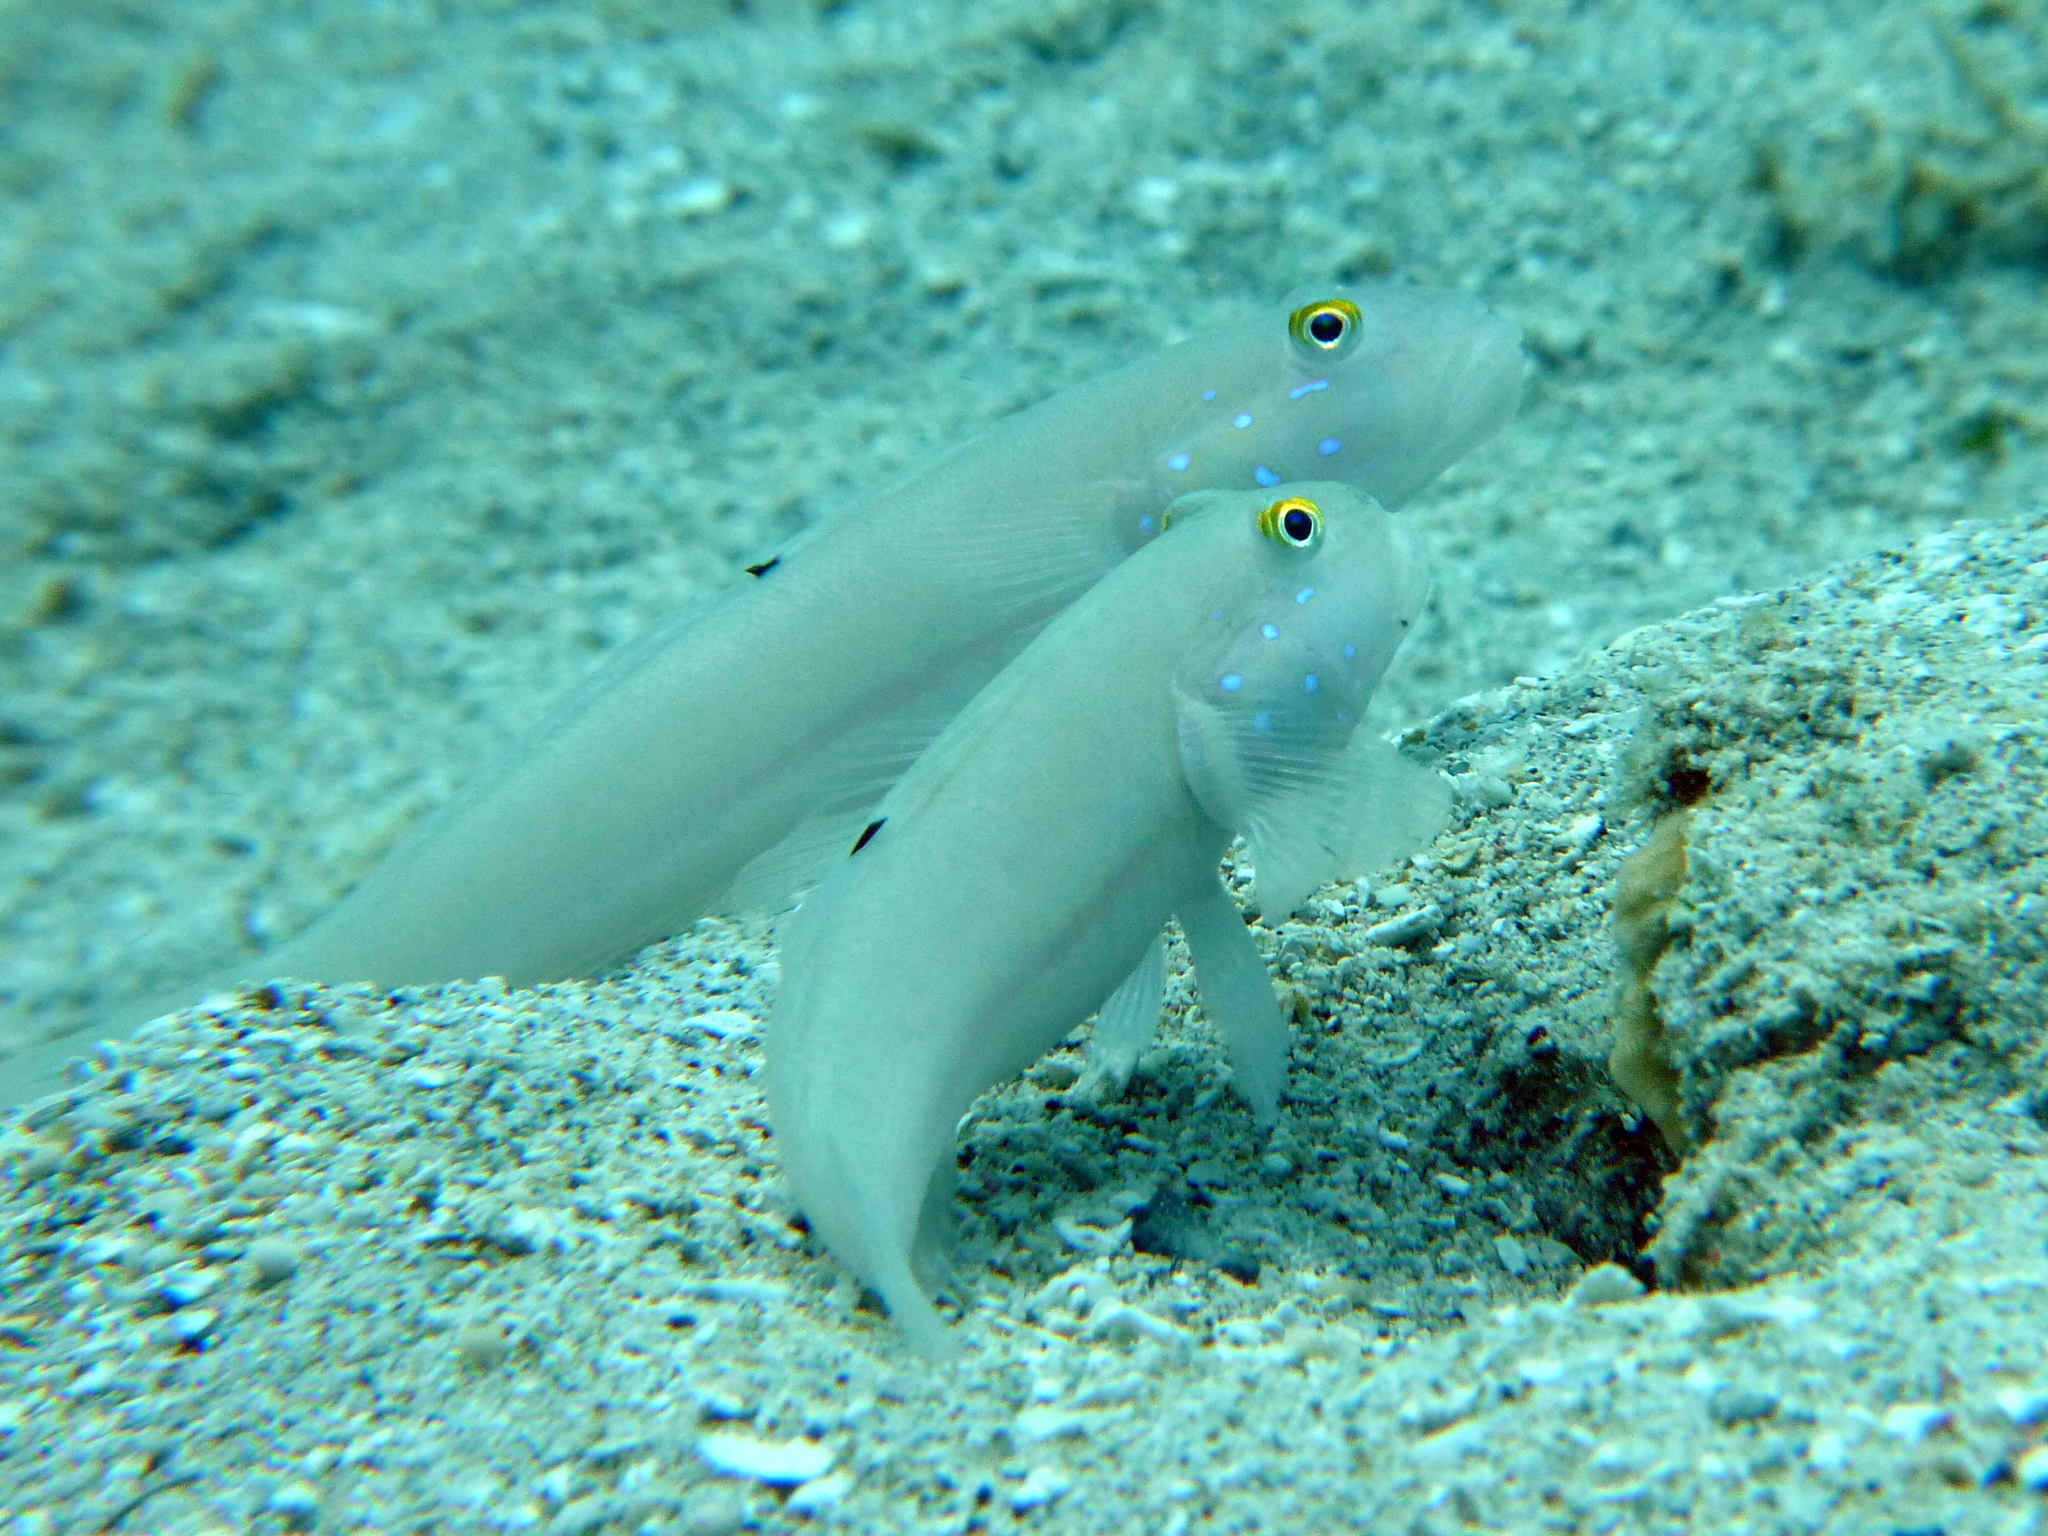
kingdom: Animalia
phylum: Chordata
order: Perciformes
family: Gobiidae
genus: Valenciennea
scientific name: Valenciennea sexguttata
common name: Sixspot goby
